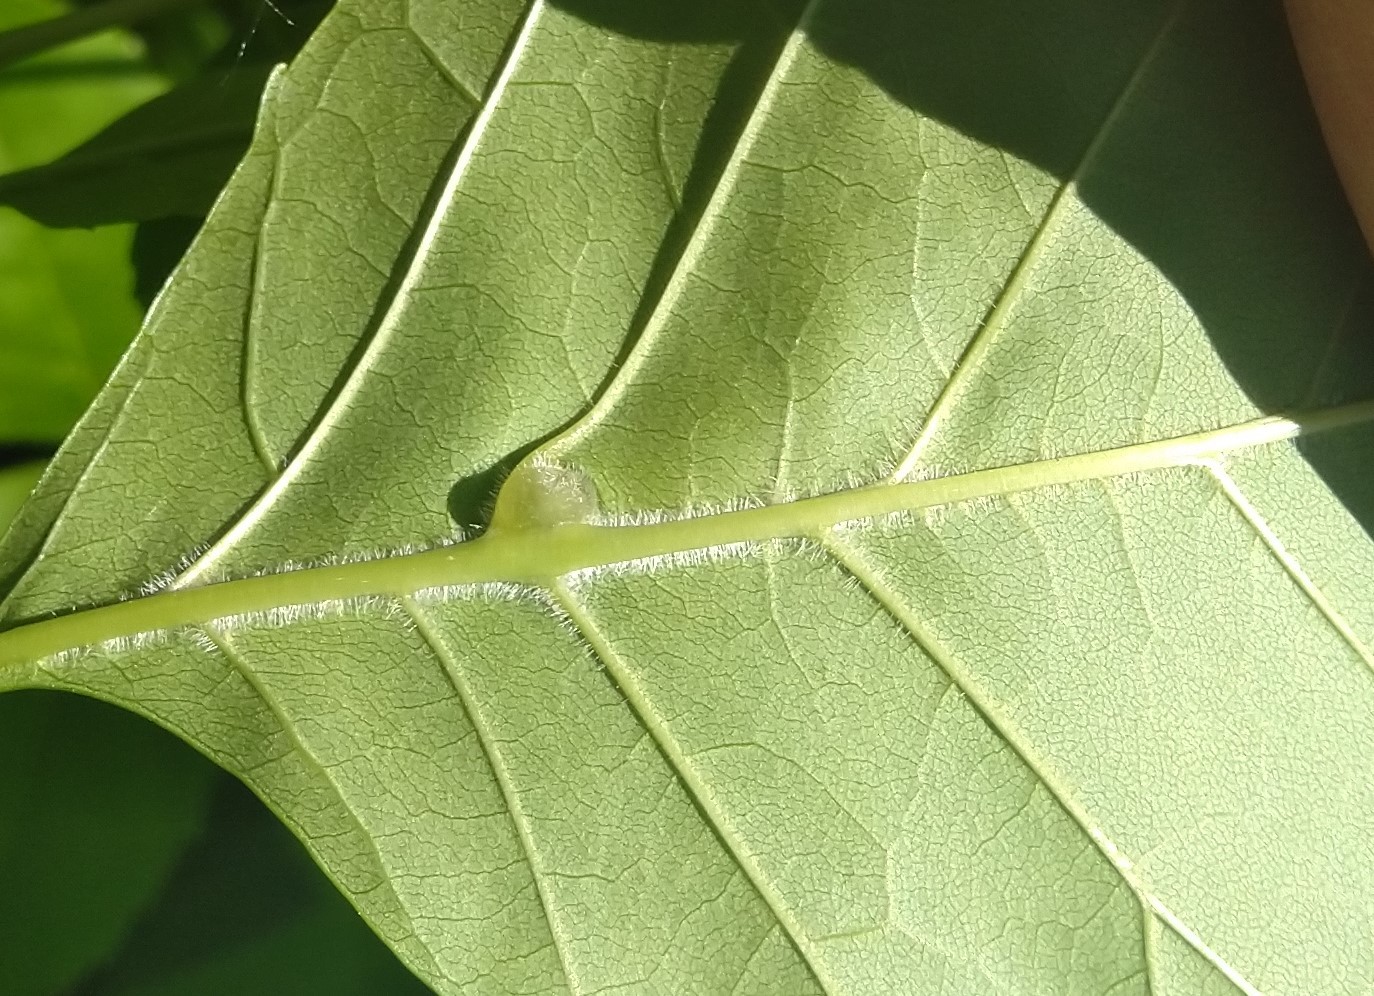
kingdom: Animalia
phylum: Arthropoda
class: Insecta
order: Diptera
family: Cecidomyiidae
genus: Dasineura
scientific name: Dasineura pellex
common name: Ash bullet gall midge
